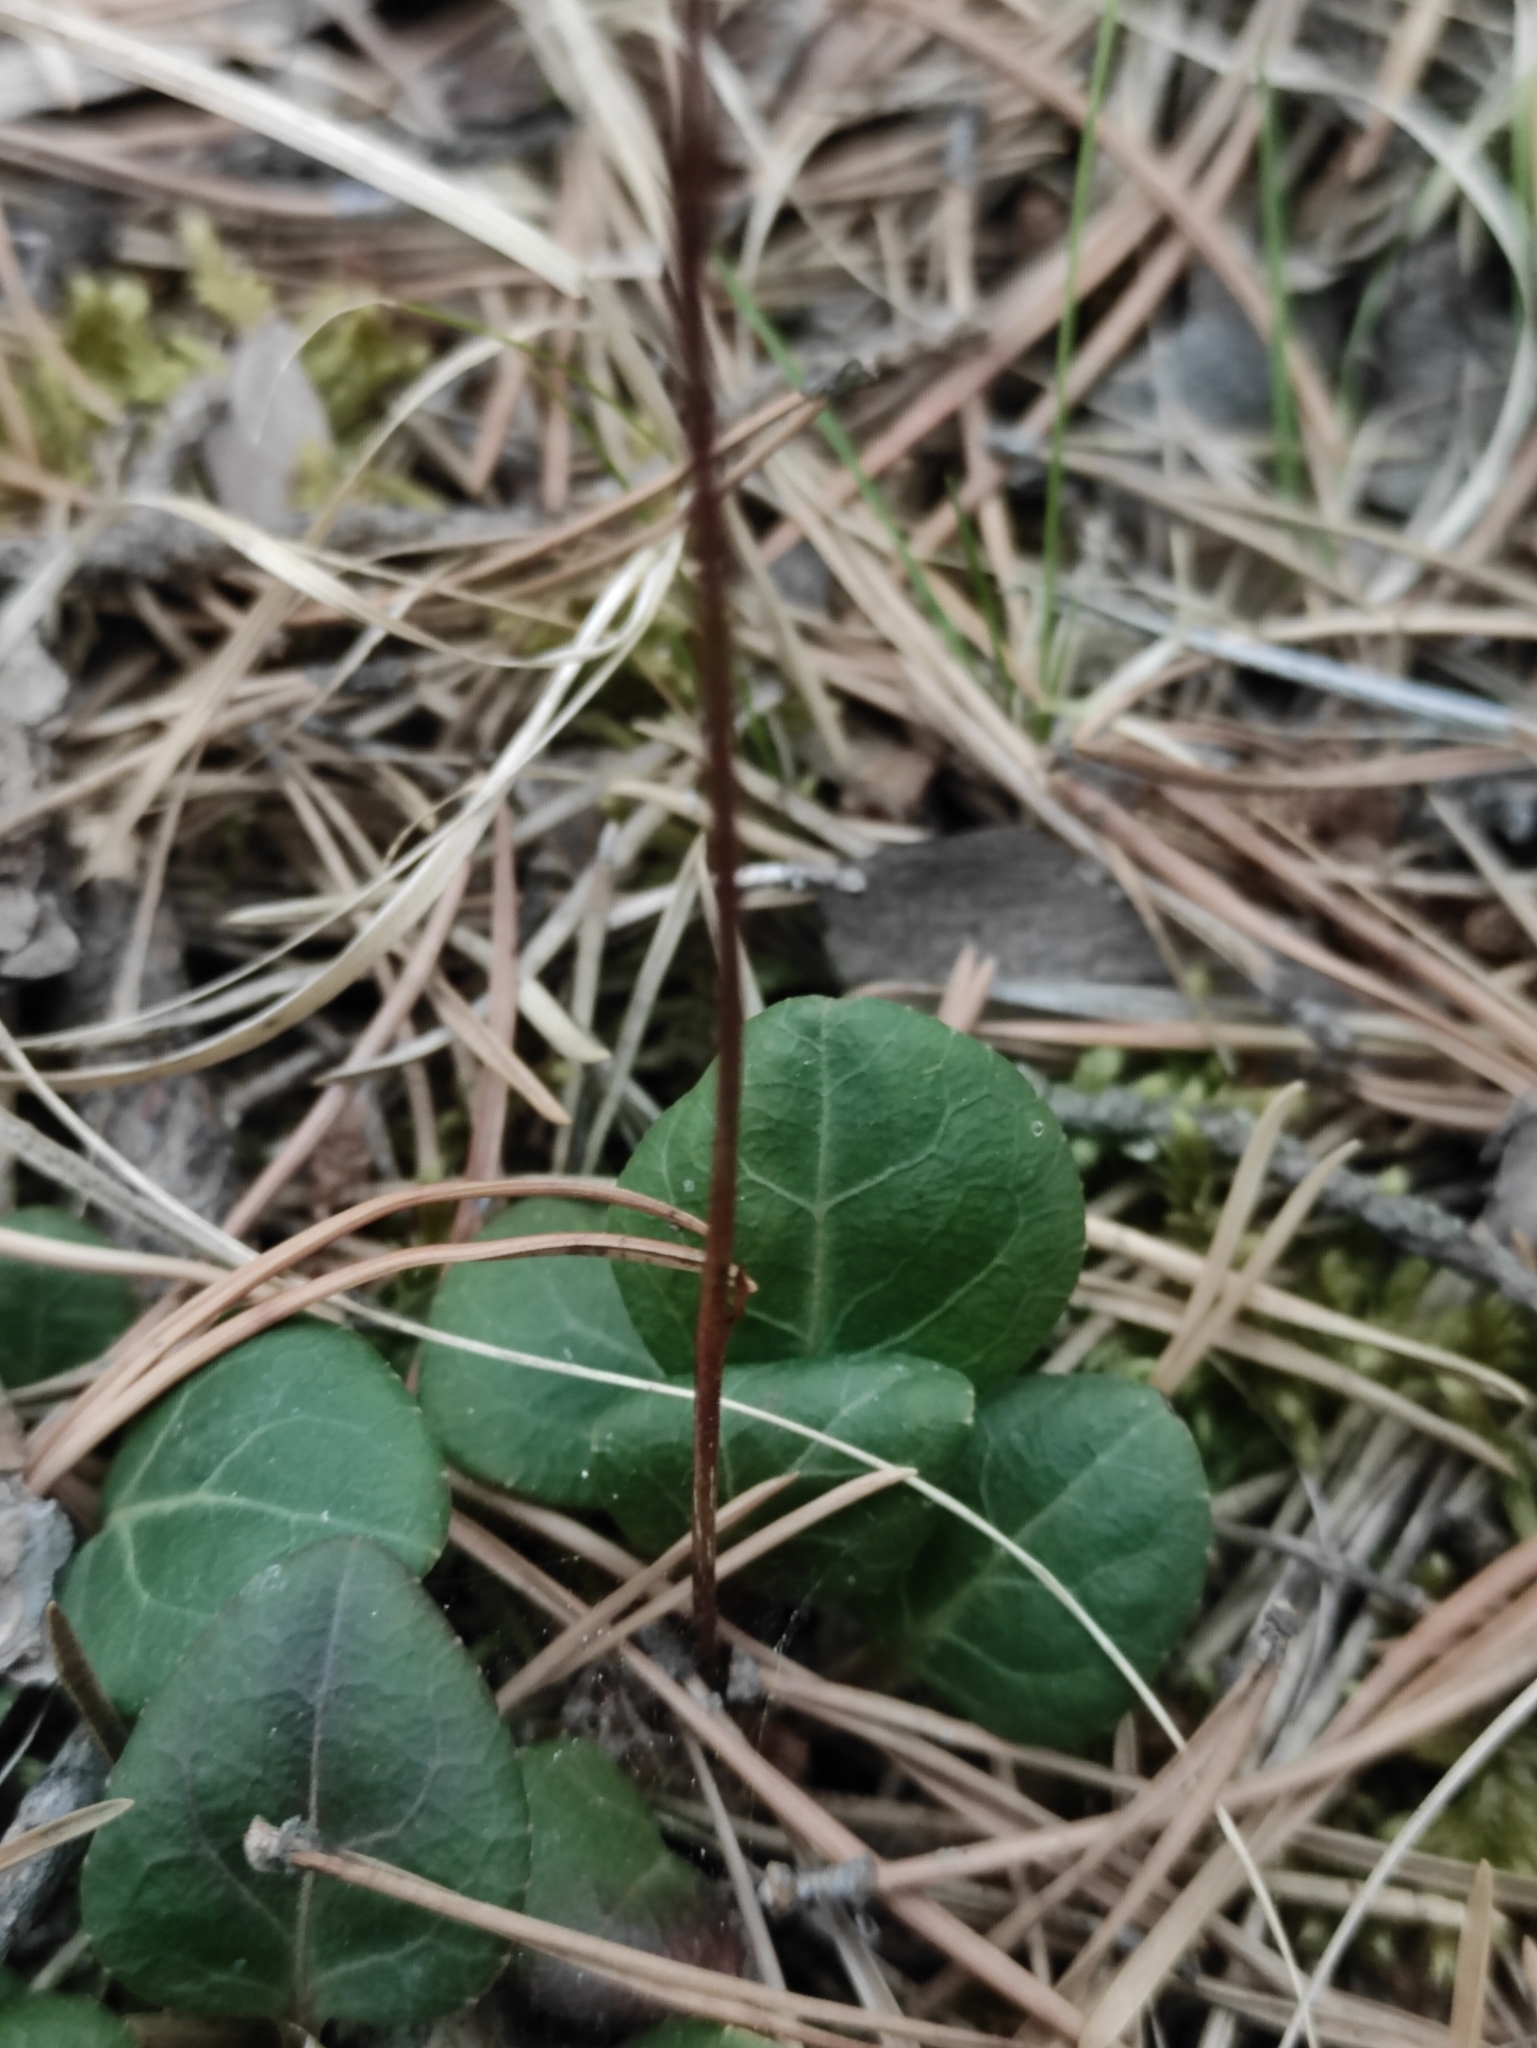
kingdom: Plantae
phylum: Tracheophyta
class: Magnoliopsida
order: Ericales
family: Ericaceae
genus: Moneses
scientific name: Moneses uniflora
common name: One-flowered wintergreen
